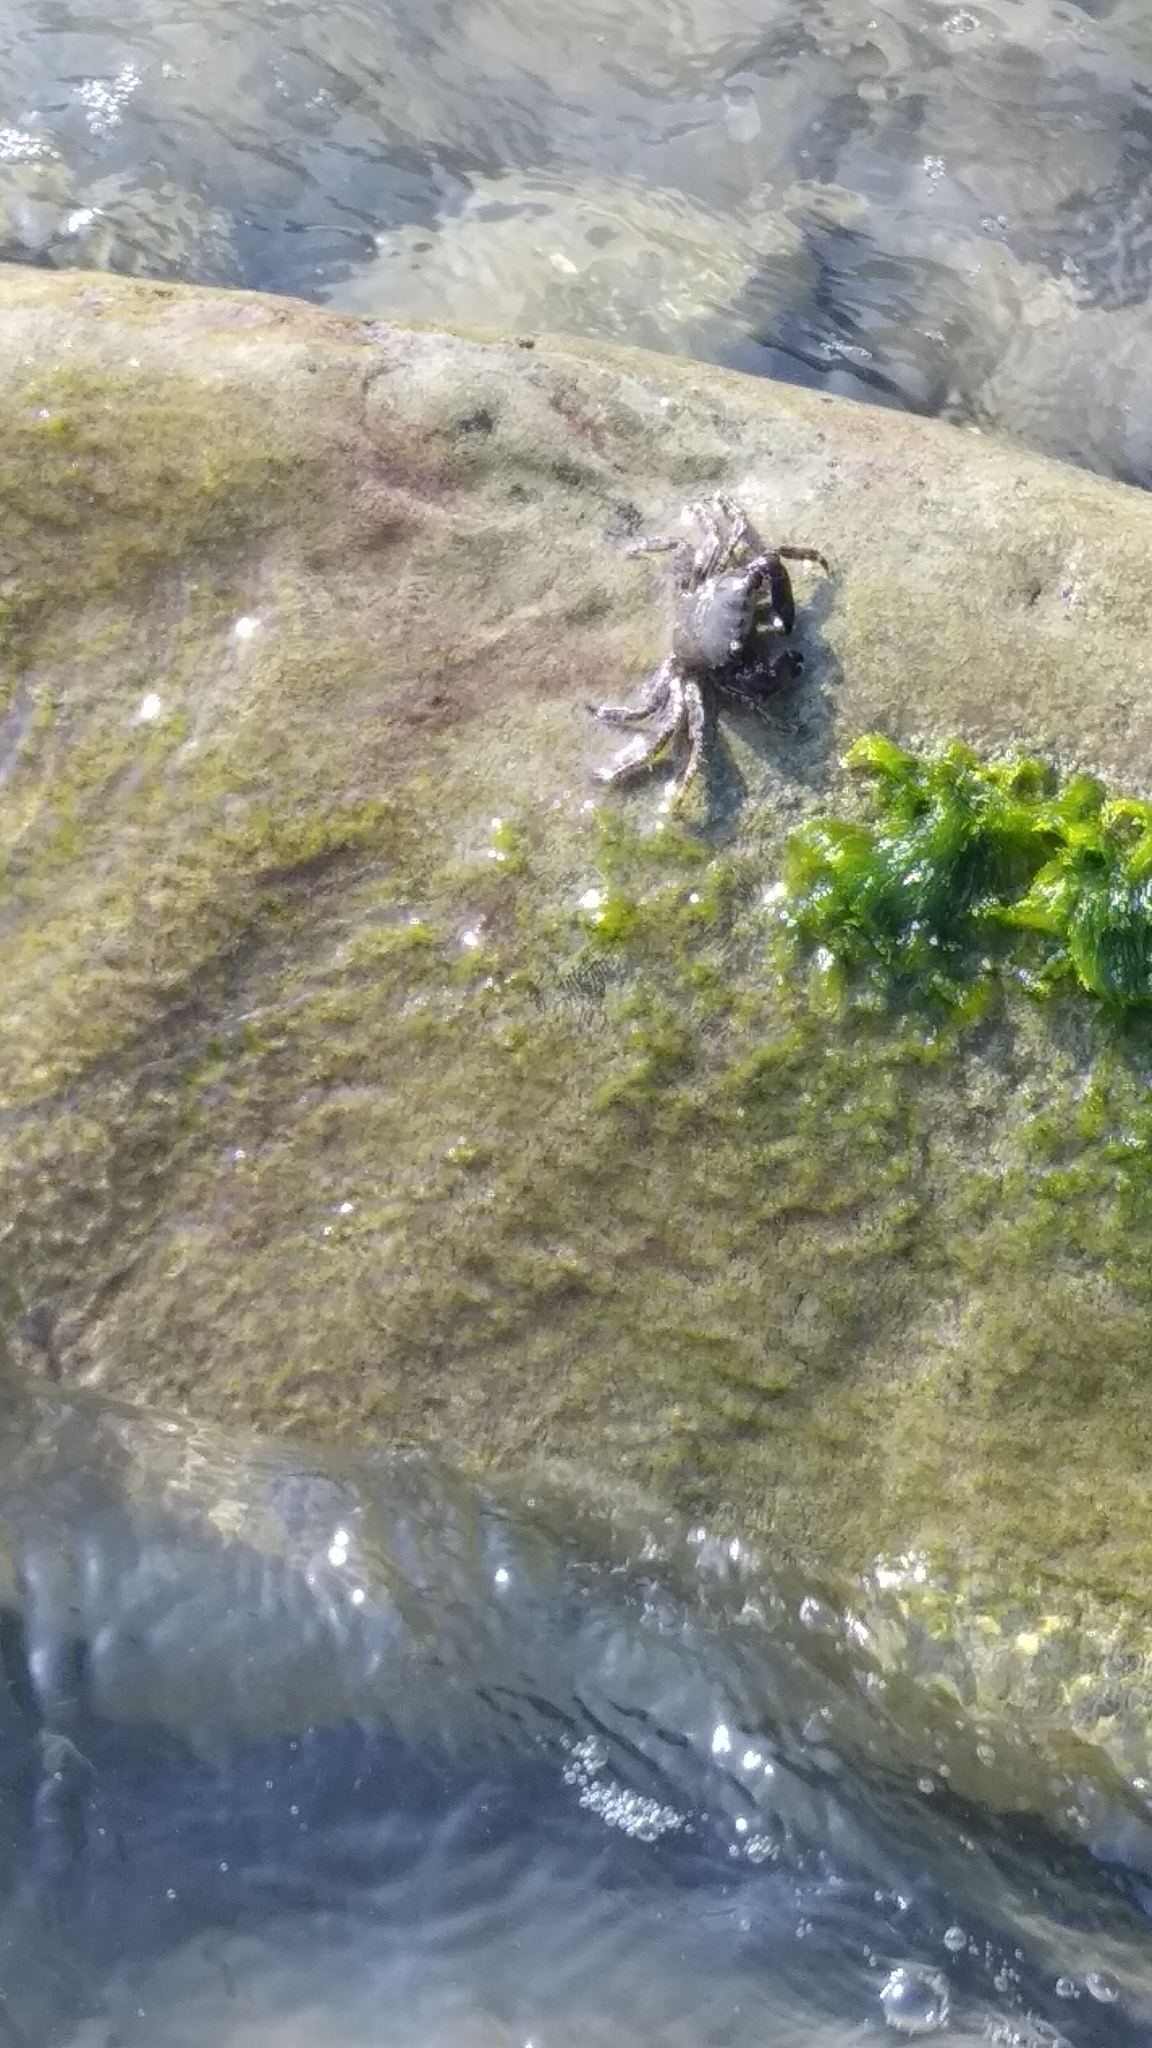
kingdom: Animalia
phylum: Arthropoda
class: Malacostraca
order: Decapoda
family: Grapsidae
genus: Pachygrapsus
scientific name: Pachygrapsus marmoratus
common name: Marbled rock crab
